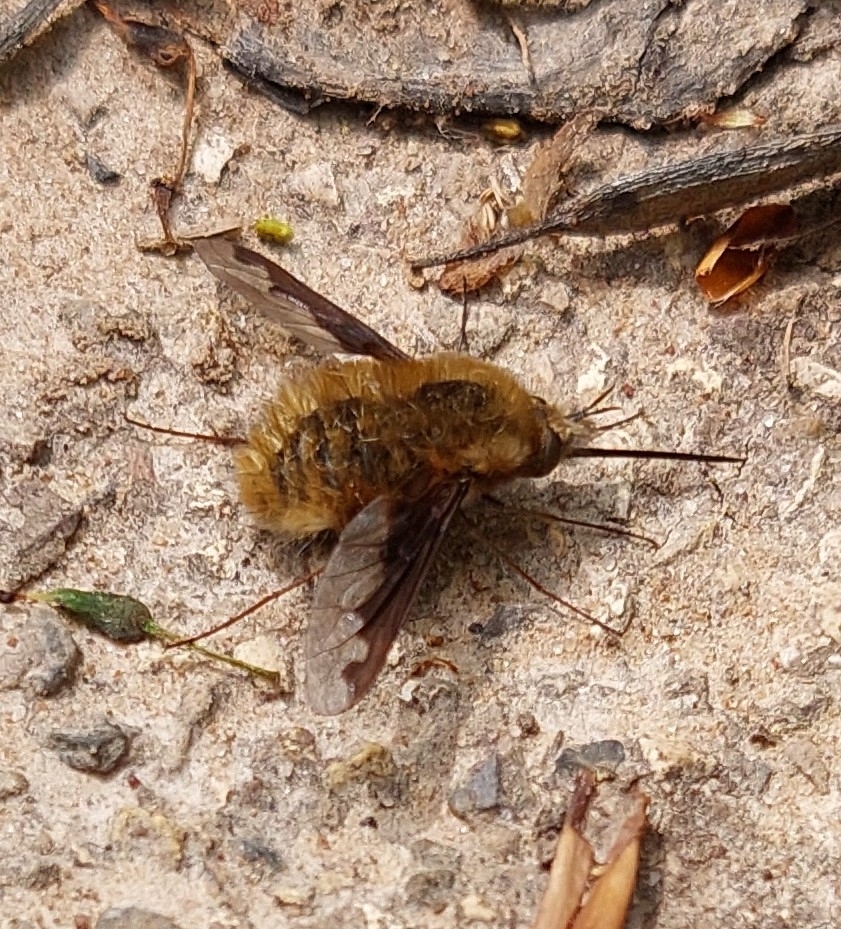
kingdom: Animalia
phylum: Arthropoda
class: Insecta
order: Diptera
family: Bombyliidae
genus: Bombylius
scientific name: Bombylius major
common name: Bee fly
